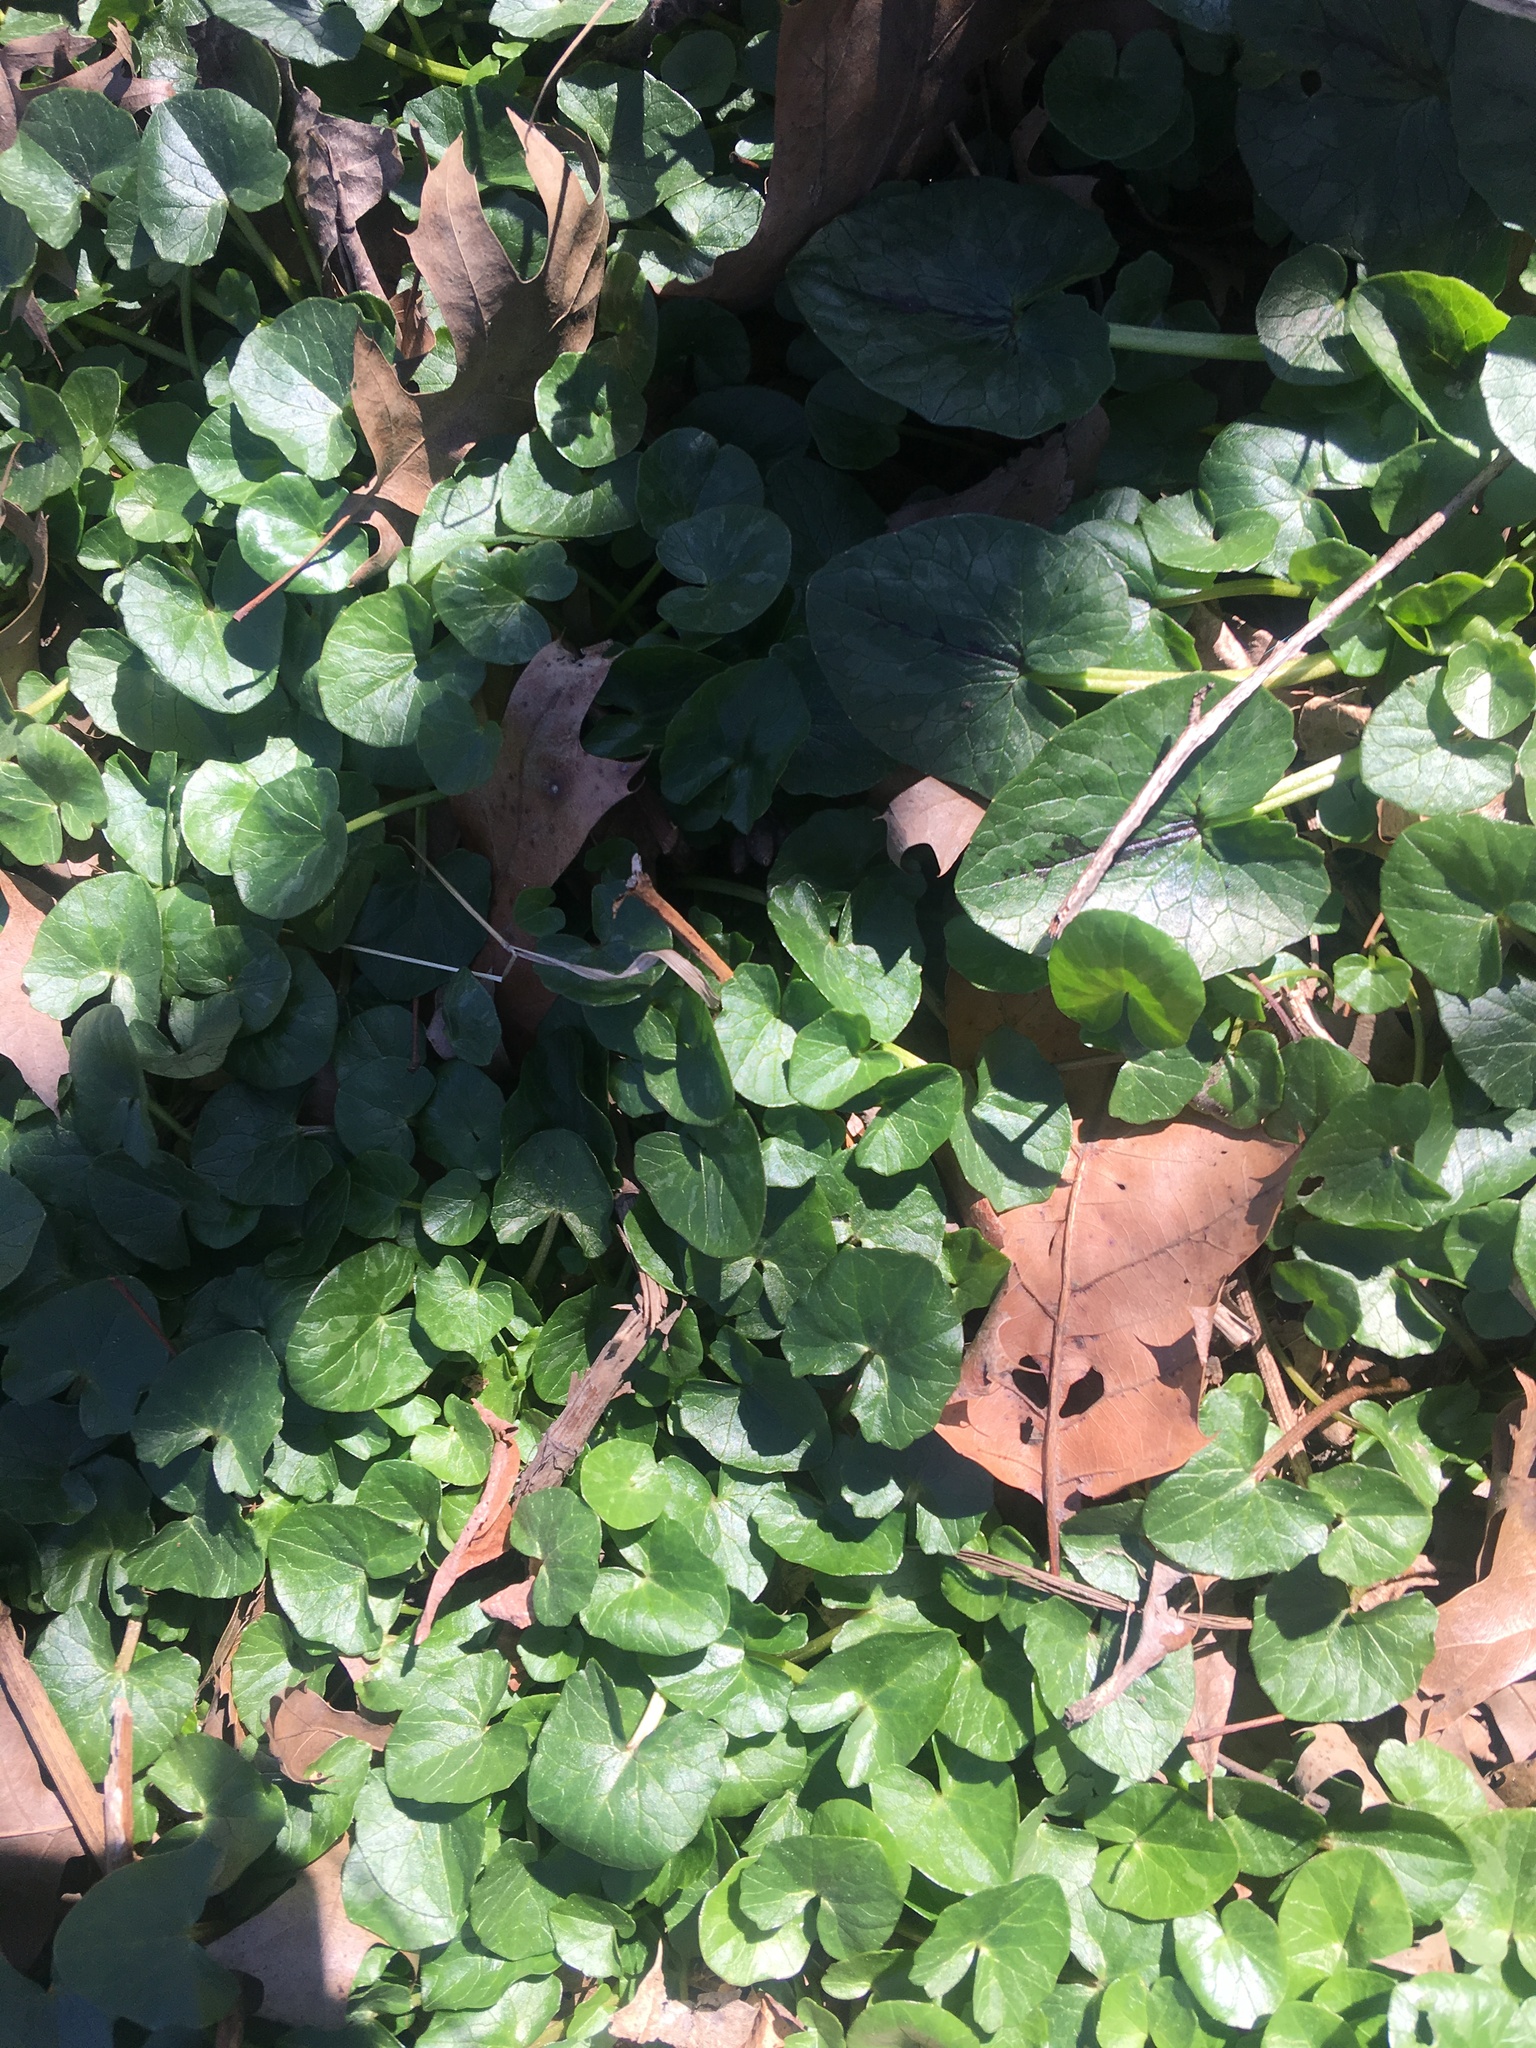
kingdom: Plantae
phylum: Tracheophyta
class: Magnoliopsida
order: Ranunculales
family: Ranunculaceae
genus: Ficaria
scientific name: Ficaria verna
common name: Lesser celandine
